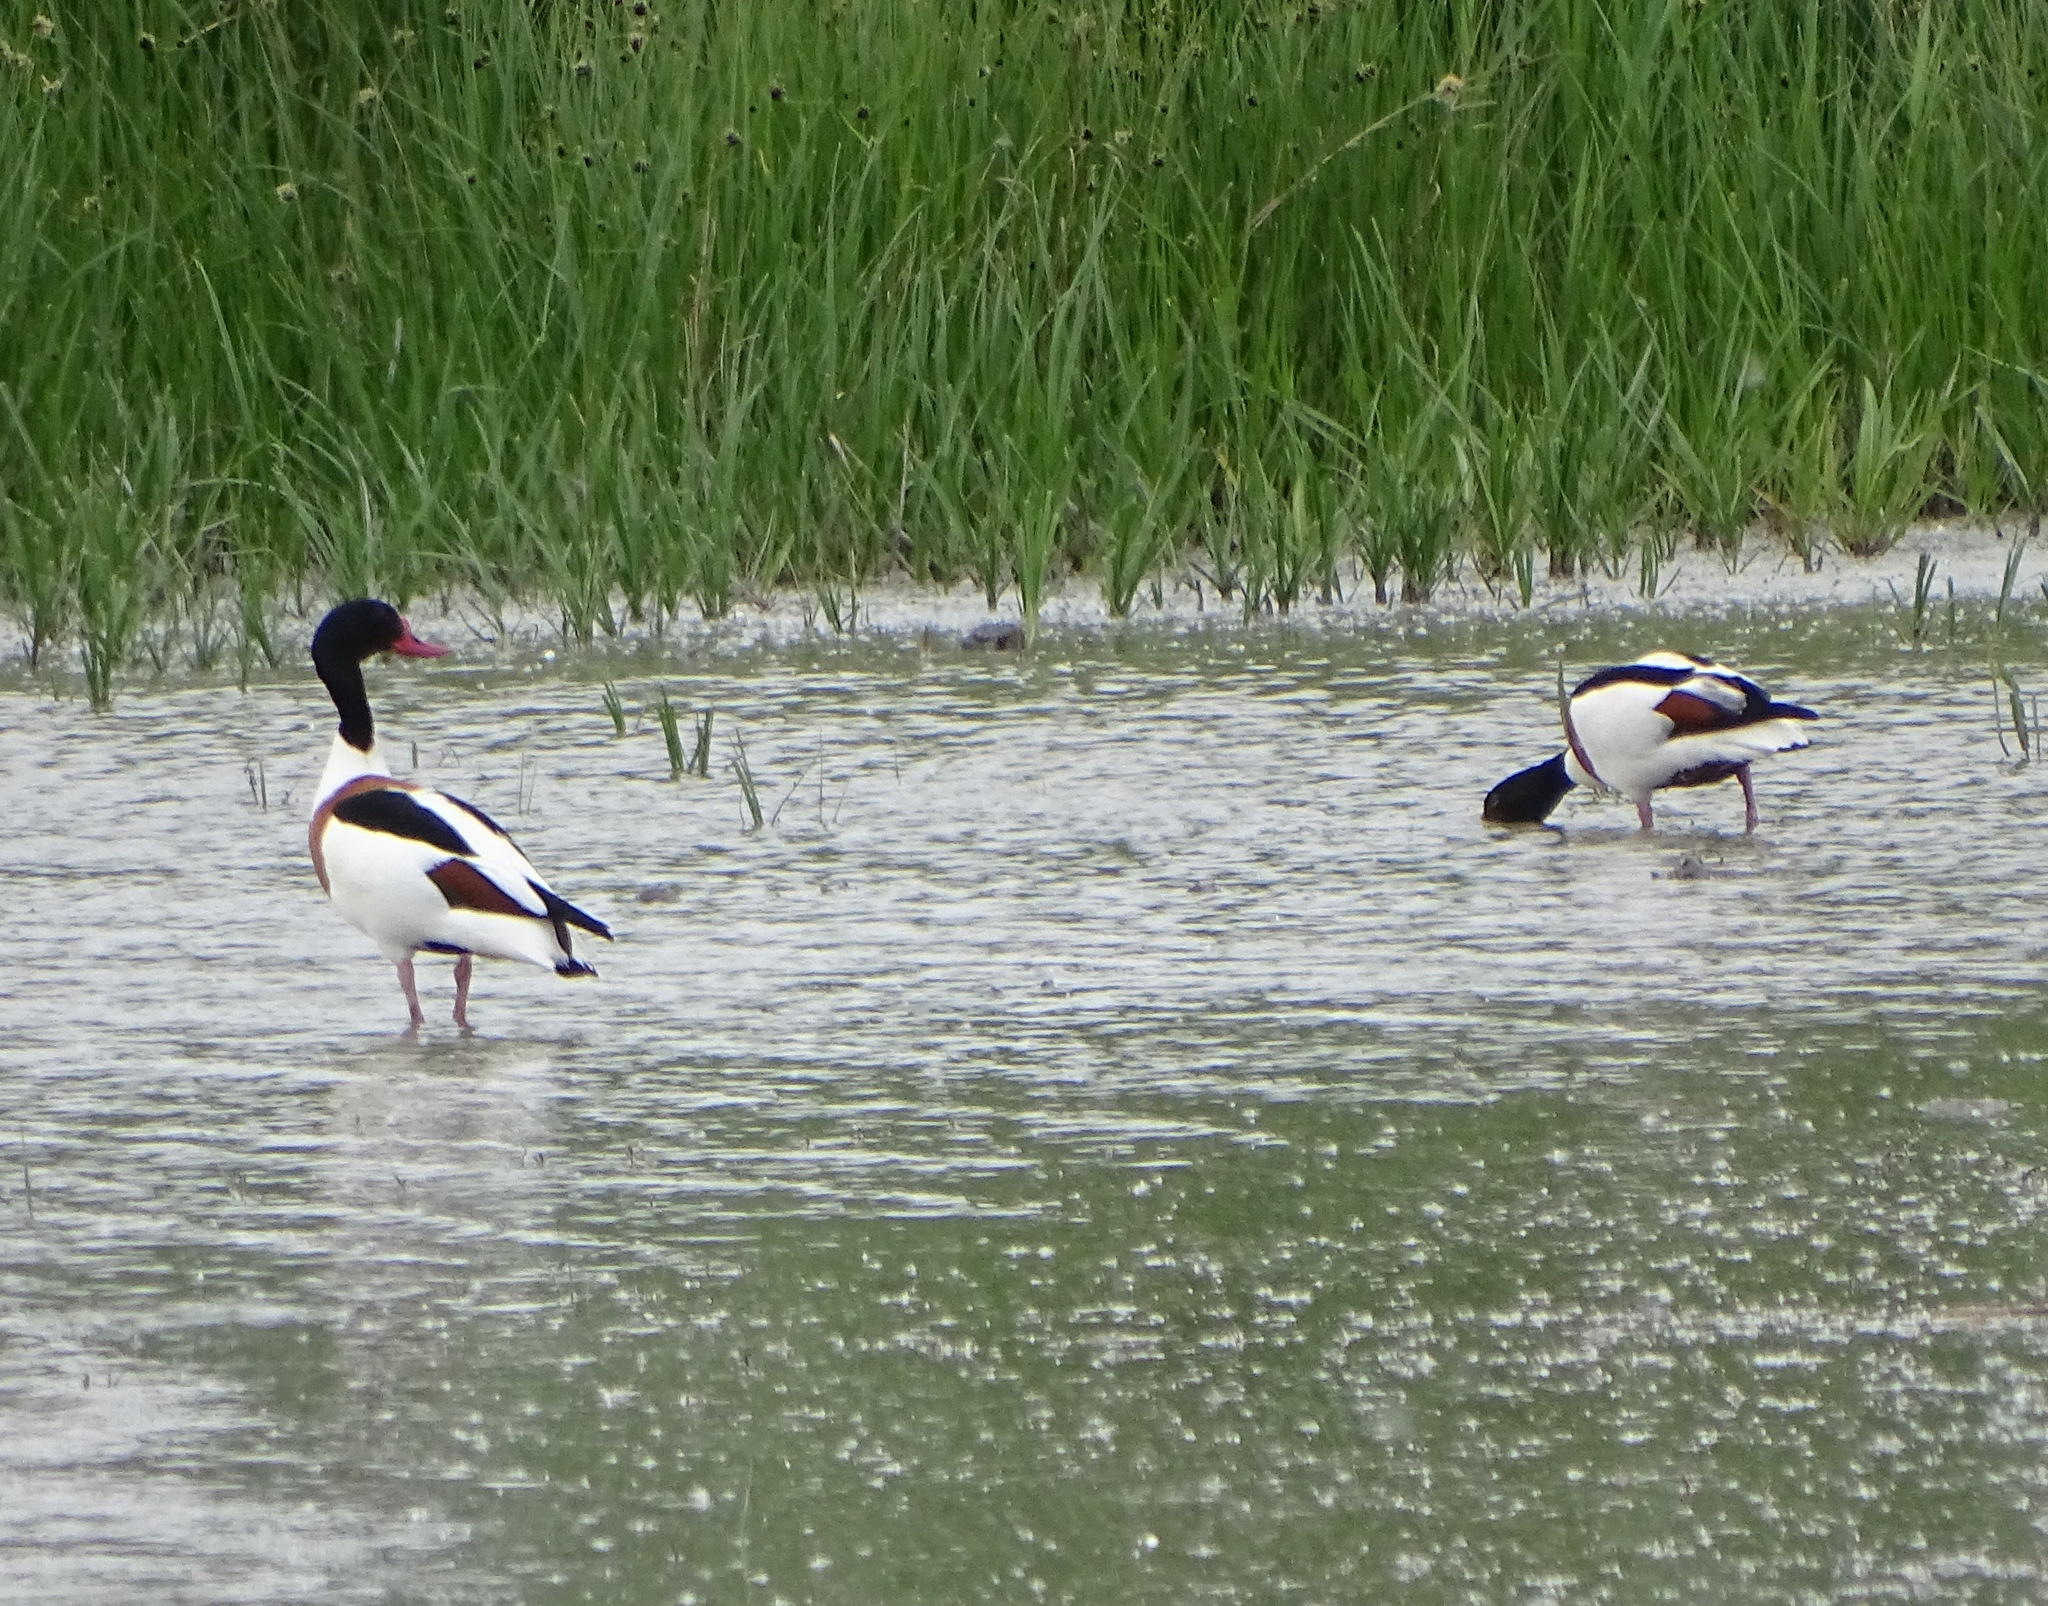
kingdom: Animalia
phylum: Chordata
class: Aves
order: Anseriformes
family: Anatidae
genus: Tadorna
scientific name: Tadorna tadorna
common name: Common shelduck
